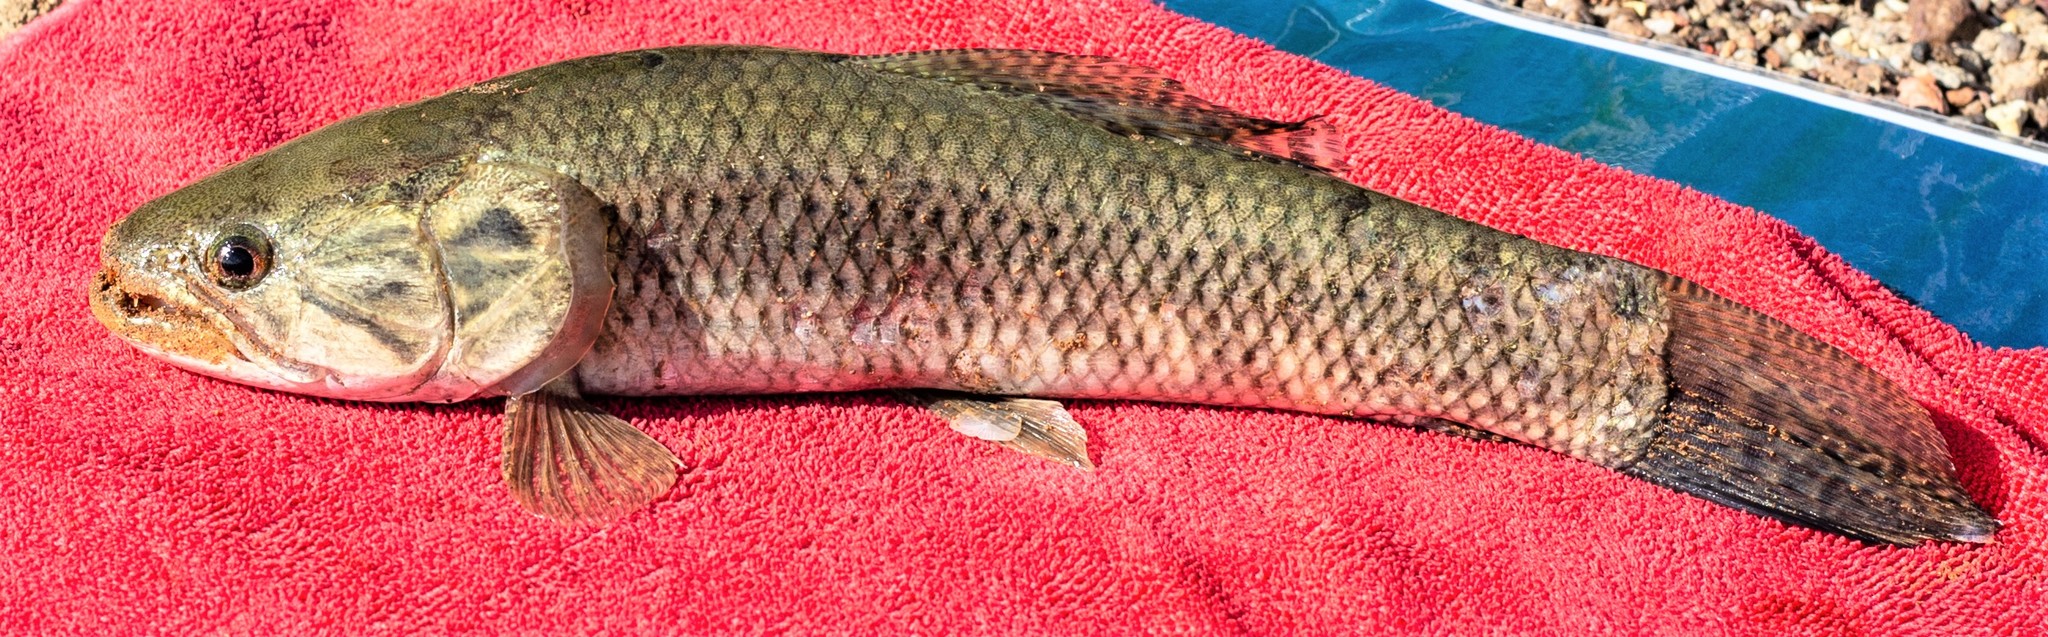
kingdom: Animalia
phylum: Chordata
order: Characiformes
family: Erythrinidae
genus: Hoplias
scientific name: Hoplias malabaricus
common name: Trahira
